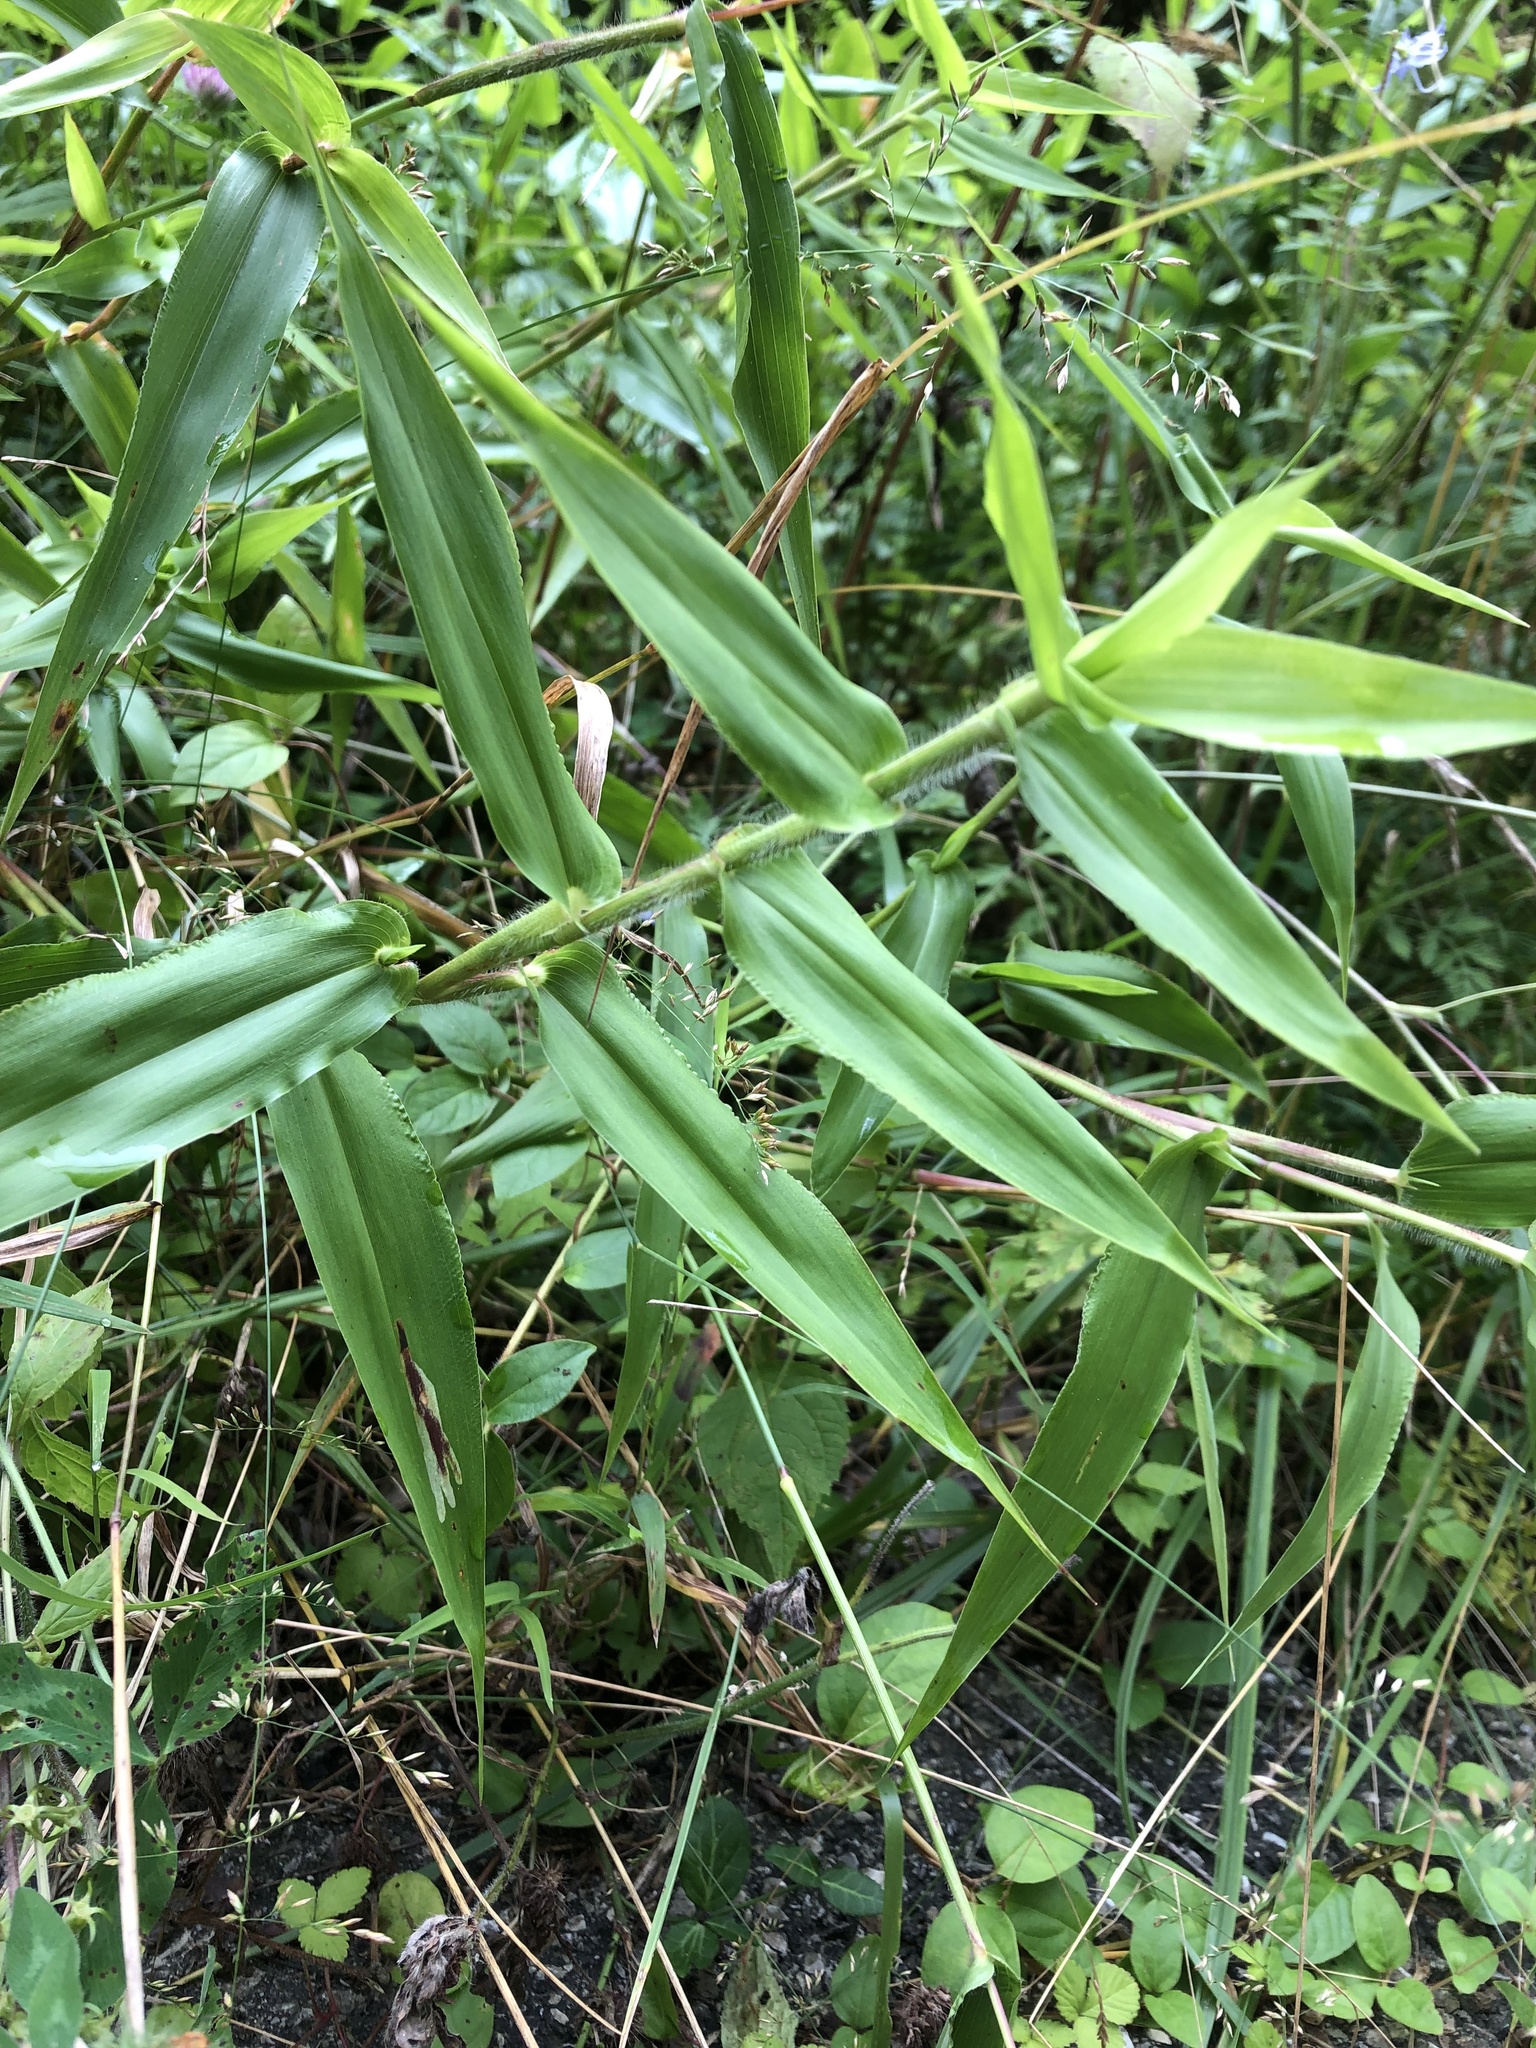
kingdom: Plantae
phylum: Tracheophyta
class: Liliopsida
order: Poales
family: Poaceae
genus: Dichanthelium
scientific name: Dichanthelium clandestinum
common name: Deer-tongue grass
